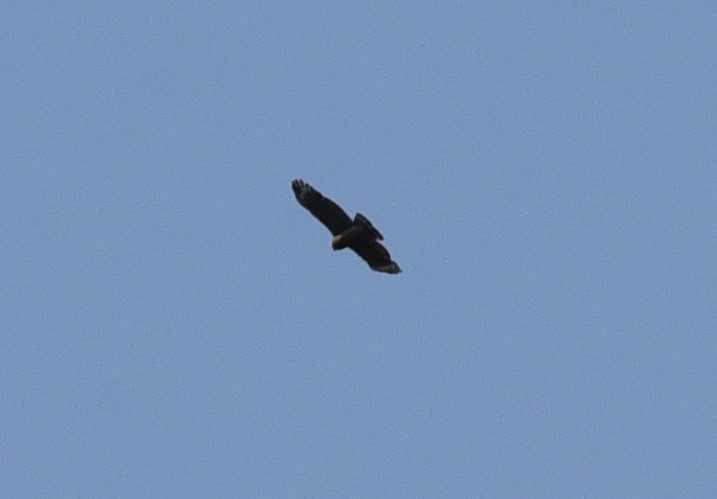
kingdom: Animalia
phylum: Chordata
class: Aves
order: Accipitriformes
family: Accipitridae
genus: Buteo
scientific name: Buteo albonotatus
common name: Zone-tailed hawk
